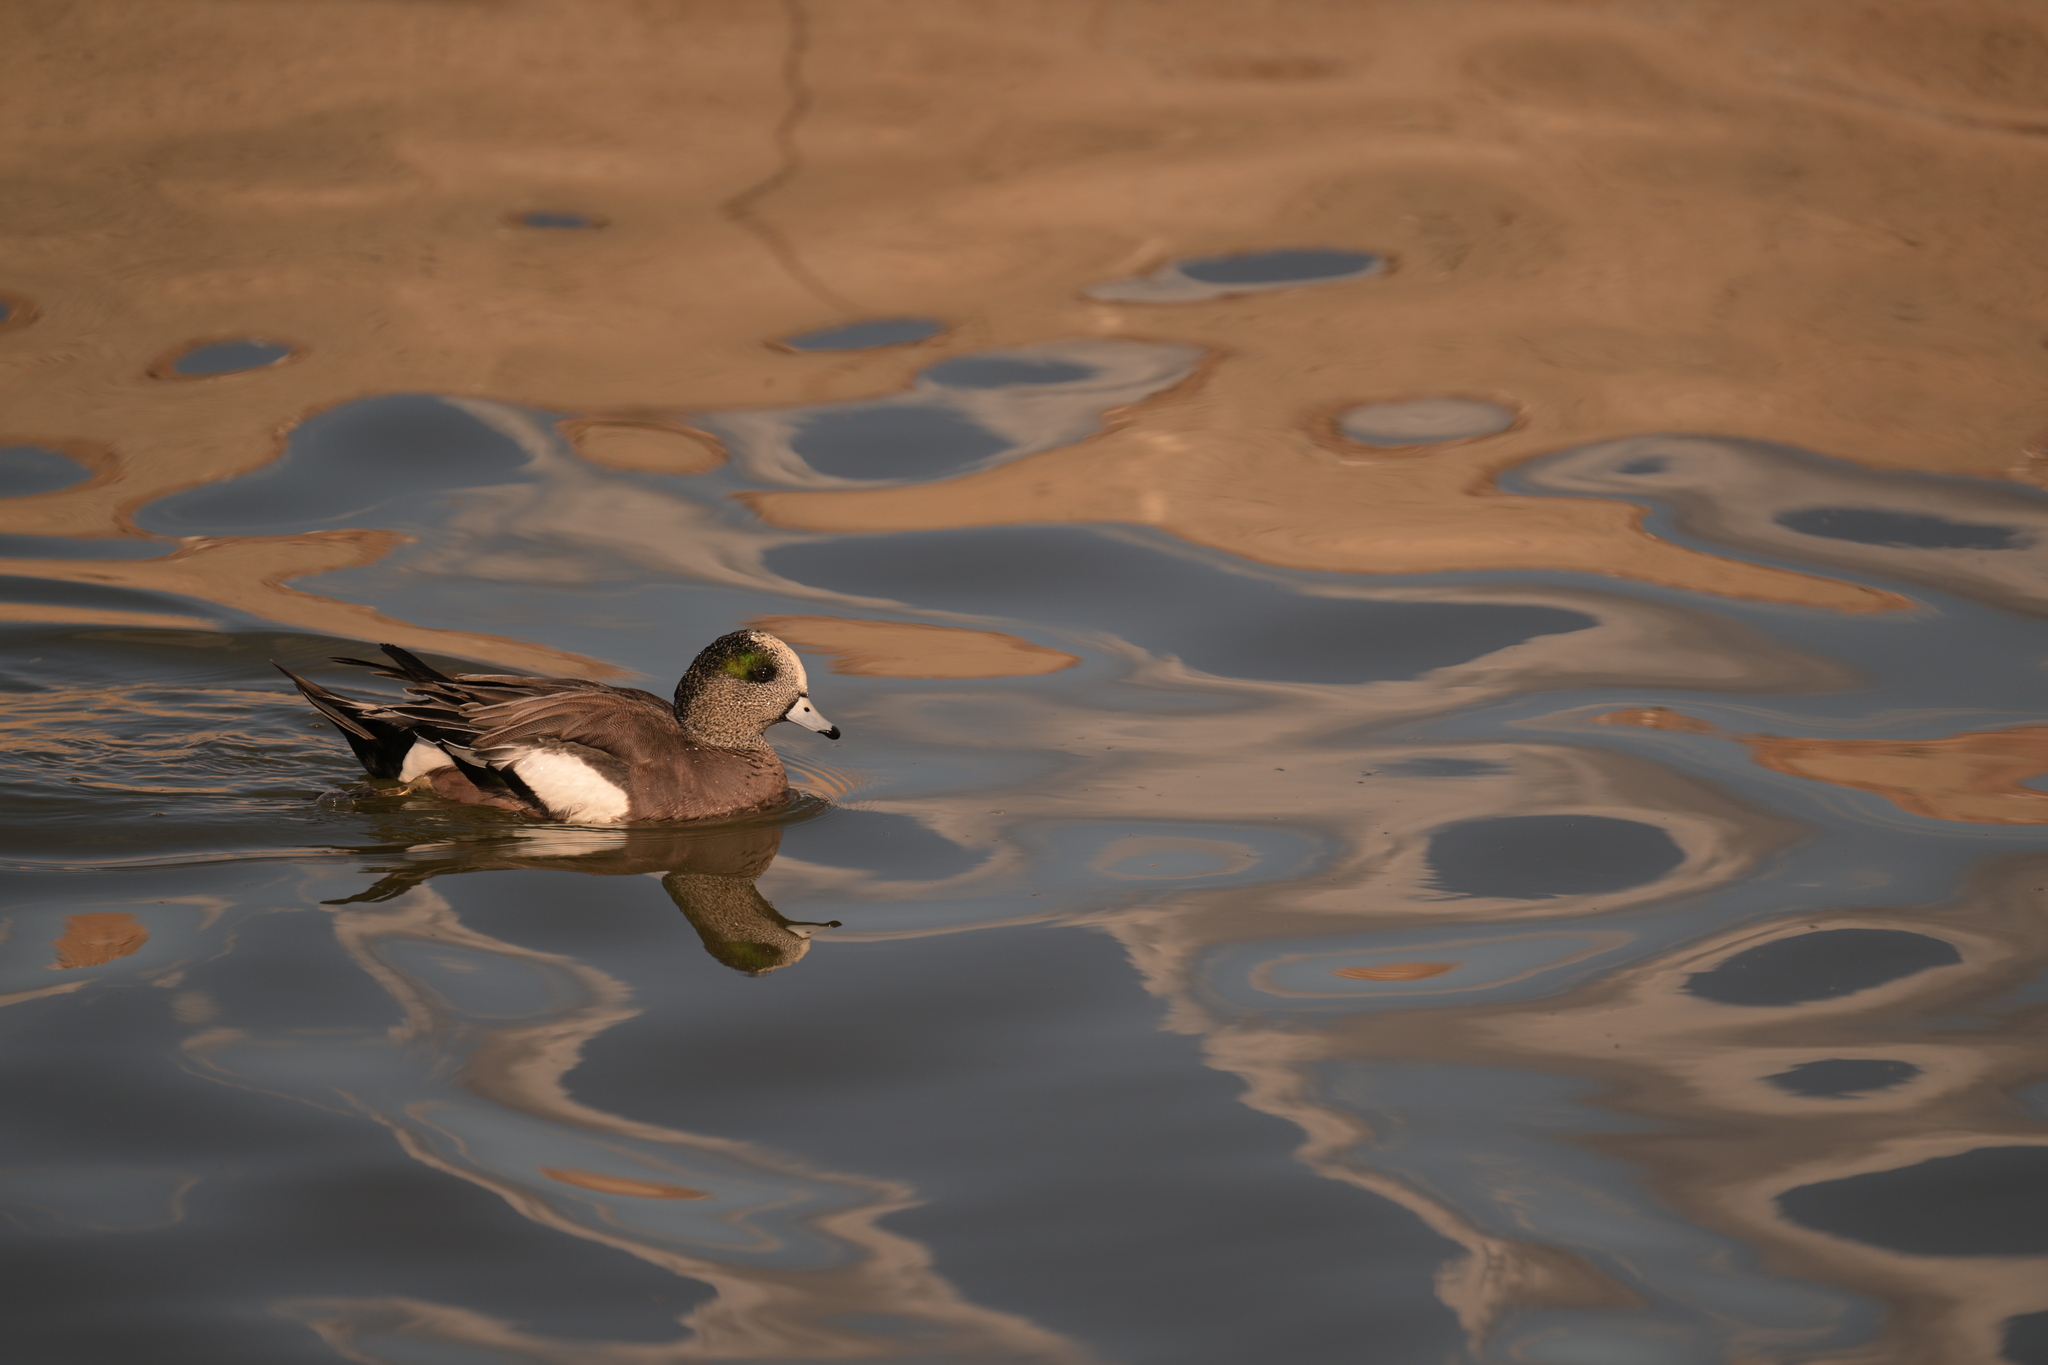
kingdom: Animalia
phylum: Chordata
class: Aves
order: Anseriformes
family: Anatidae
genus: Mareca
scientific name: Mareca americana
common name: American wigeon
